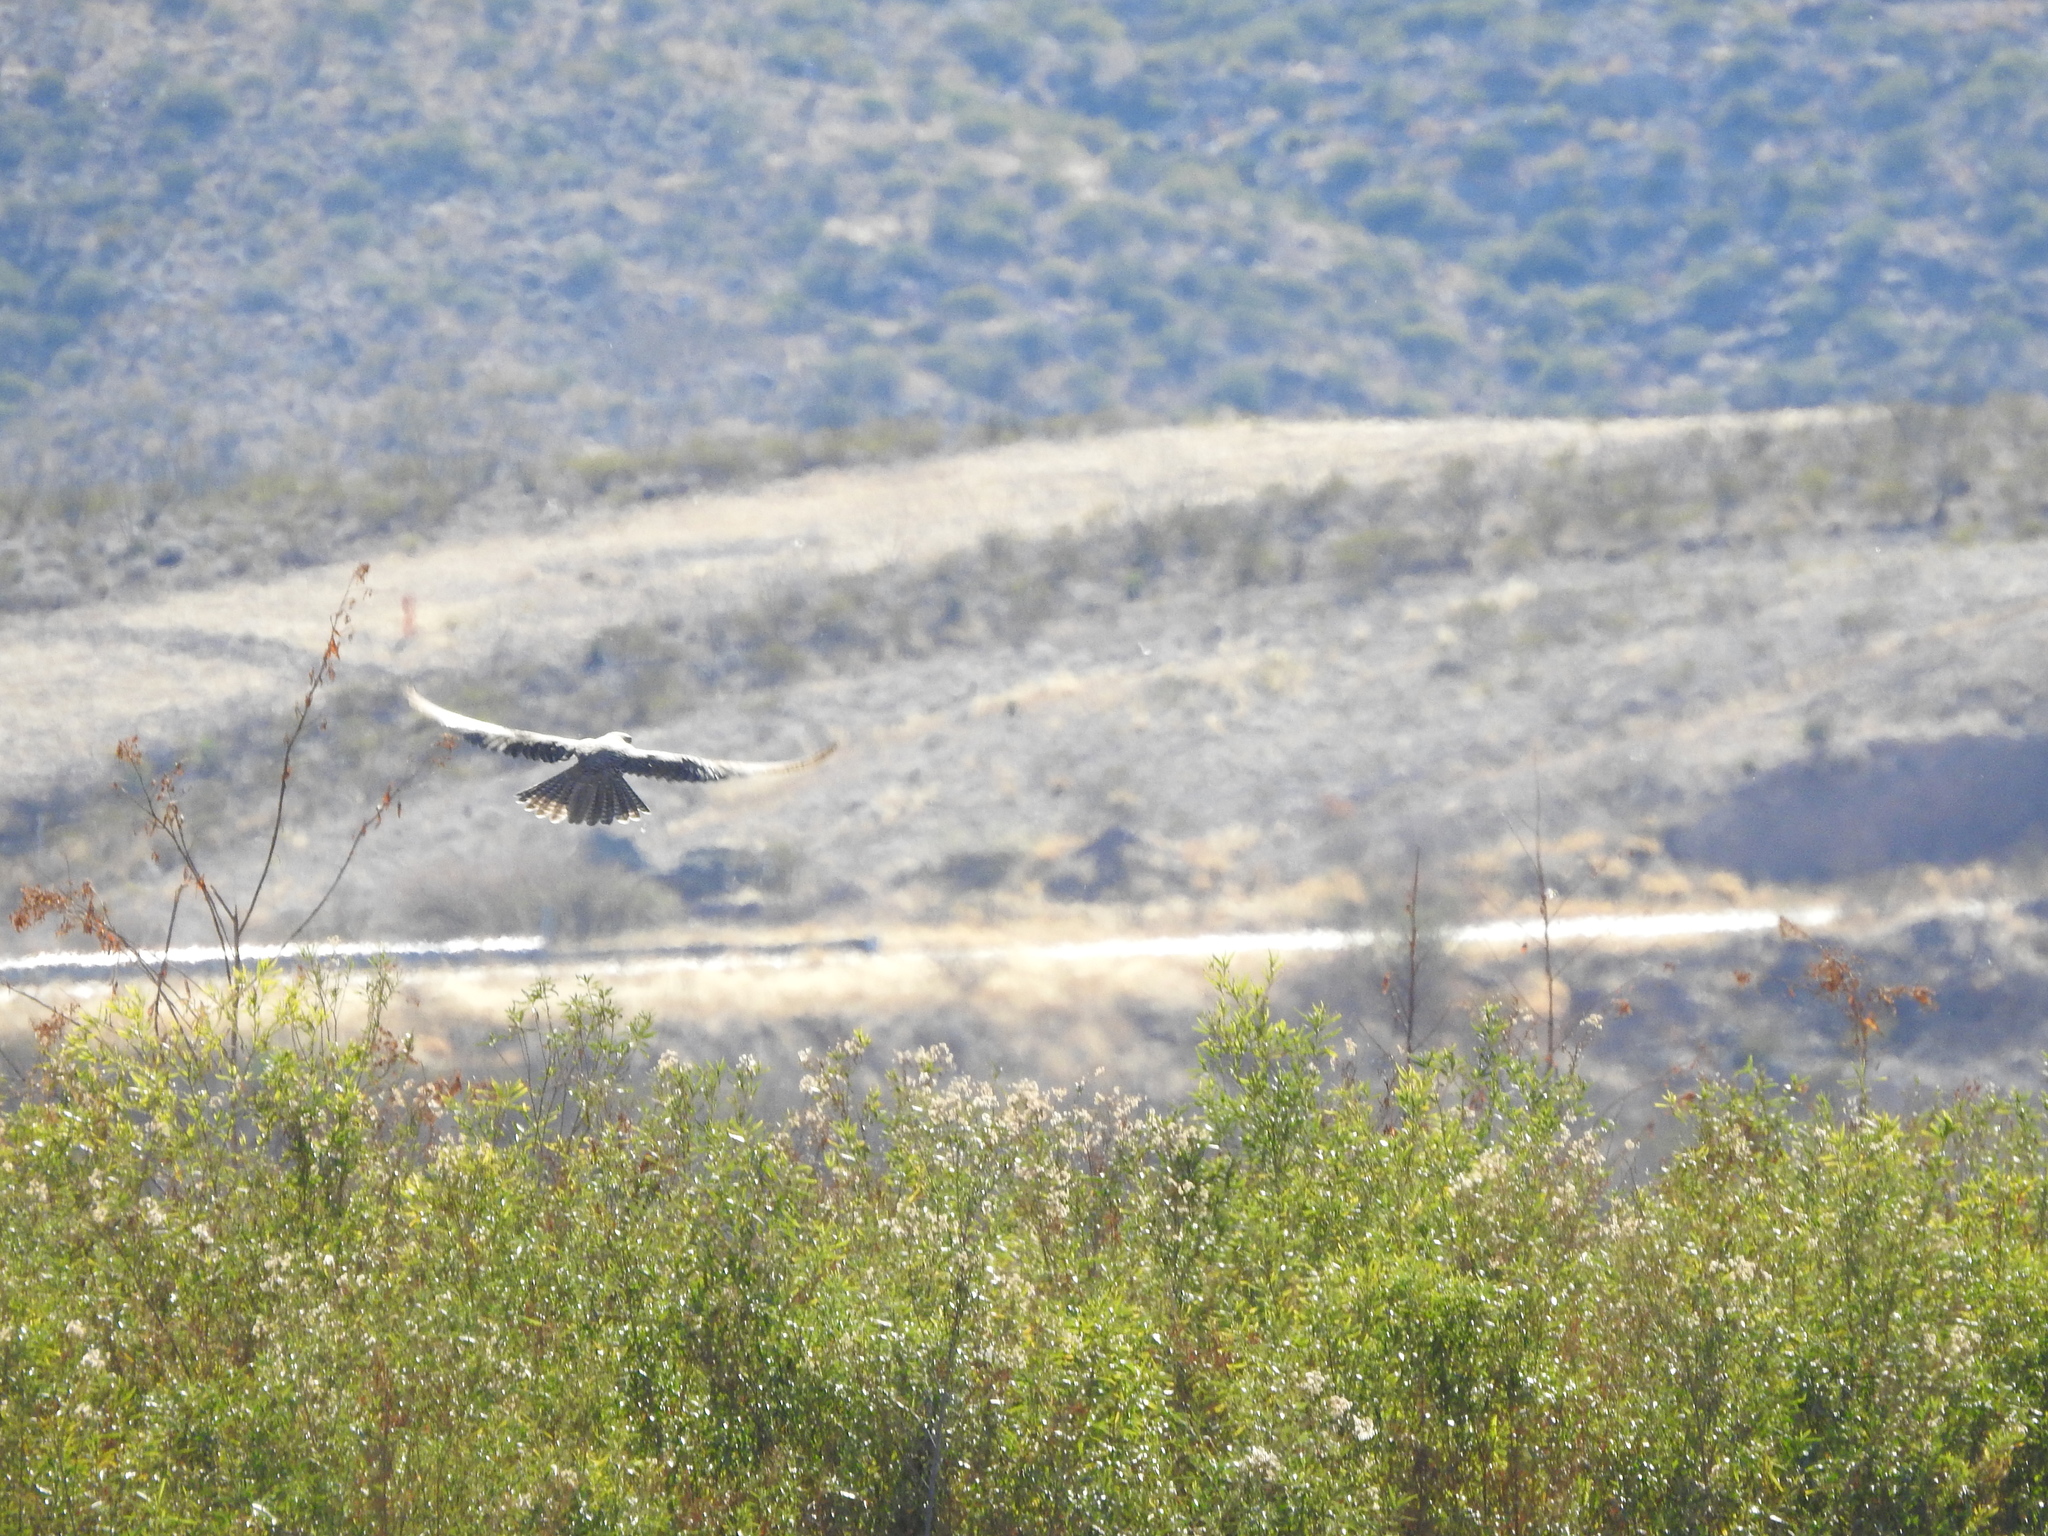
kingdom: Animalia
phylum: Chordata
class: Aves
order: Falconiformes
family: Falconidae
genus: Falco
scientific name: Falco mexicanus
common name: Prairie falcon
